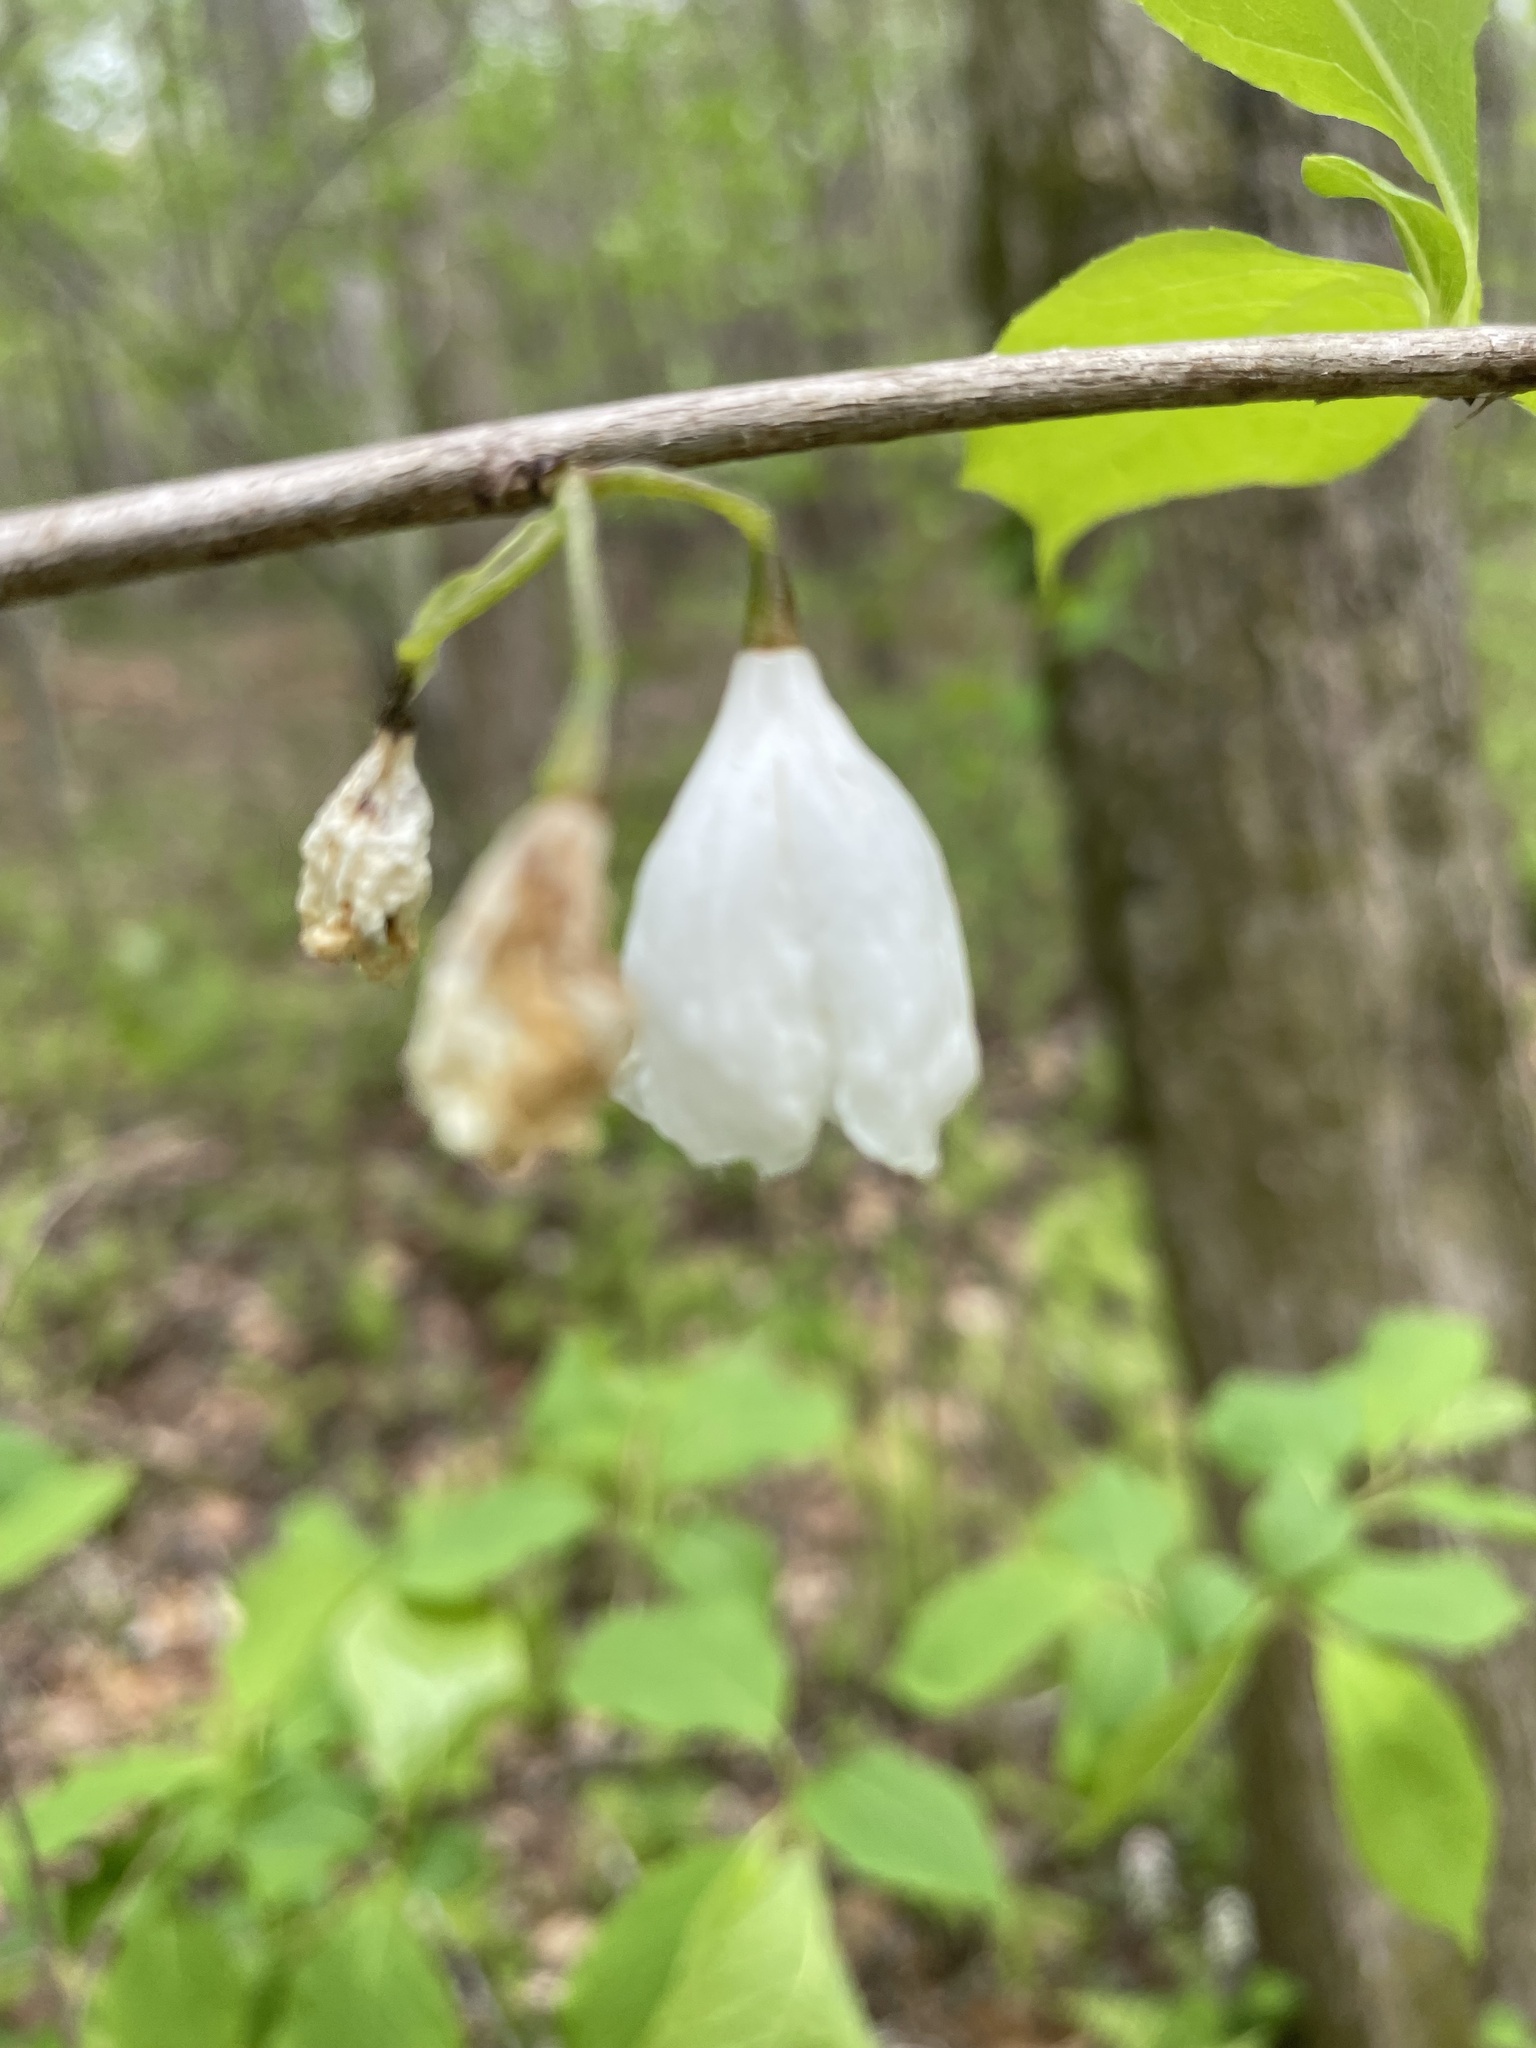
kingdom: Plantae
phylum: Tracheophyta
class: Magnoliopsida
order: Ericales
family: Styracaceae
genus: Halesia
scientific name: Halesia tetraptera
